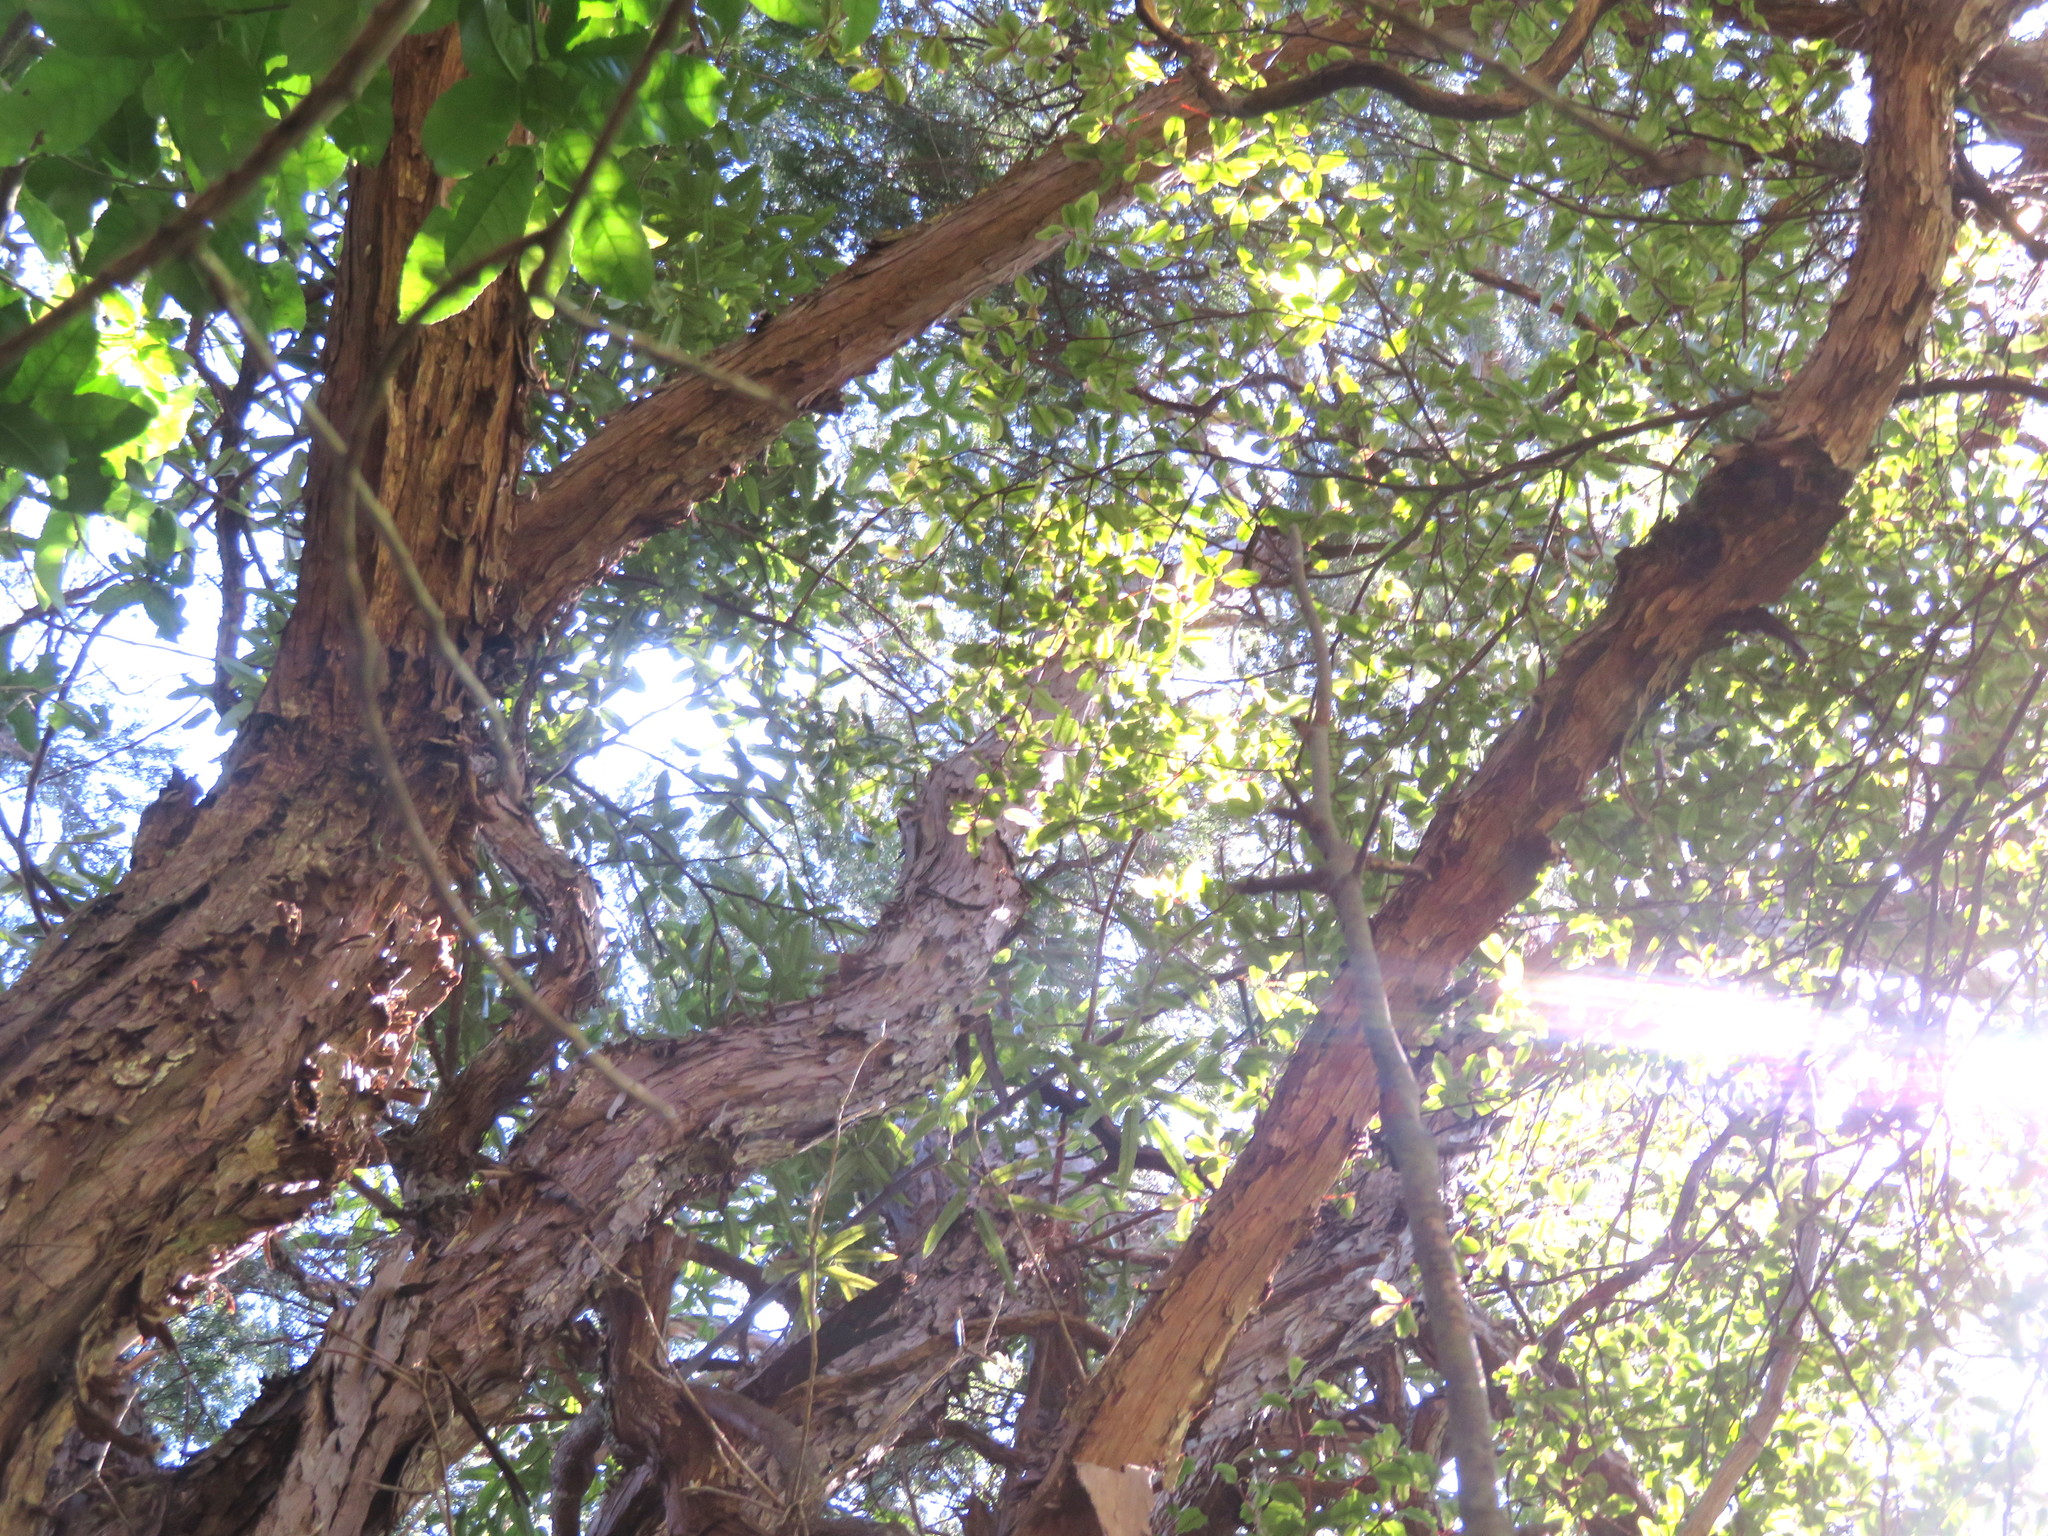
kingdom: Plantae
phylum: Tracheophyta
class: Magnoliopsida
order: Ericales
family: Primulaceae
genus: Myrsine
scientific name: Myrsine australis
